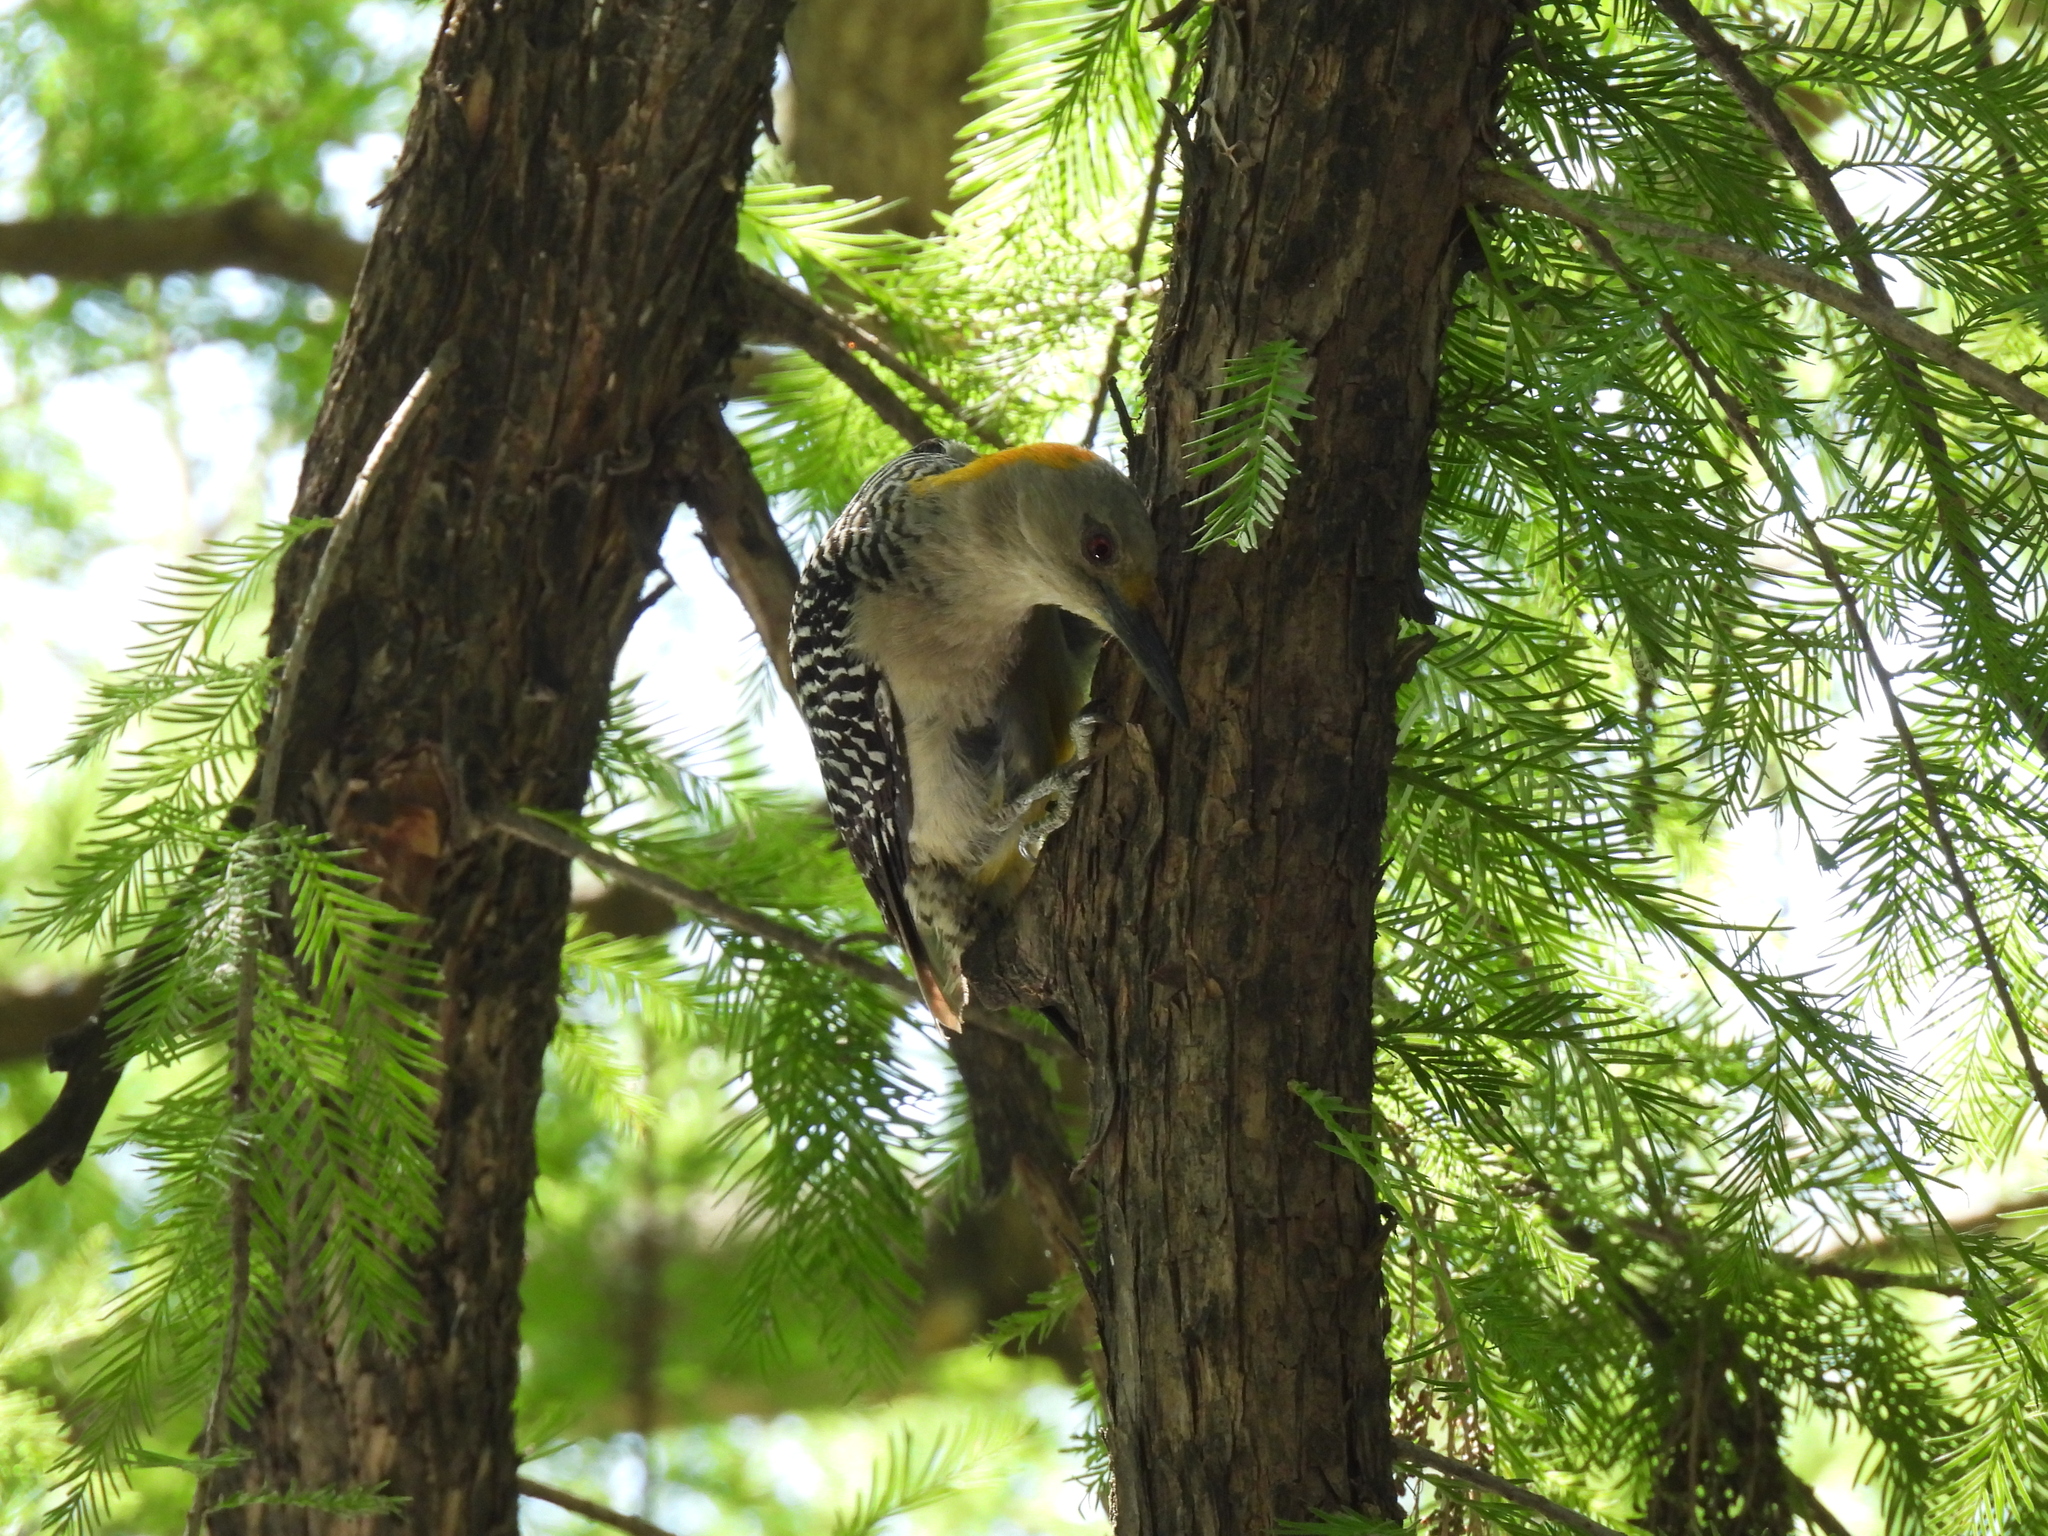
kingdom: Animalia
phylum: Chordata
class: Aves
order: Piciformes
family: Picidae
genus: Melanerpes
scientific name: Melanerpes aurifrons
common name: Golden-fronted woodpecker
